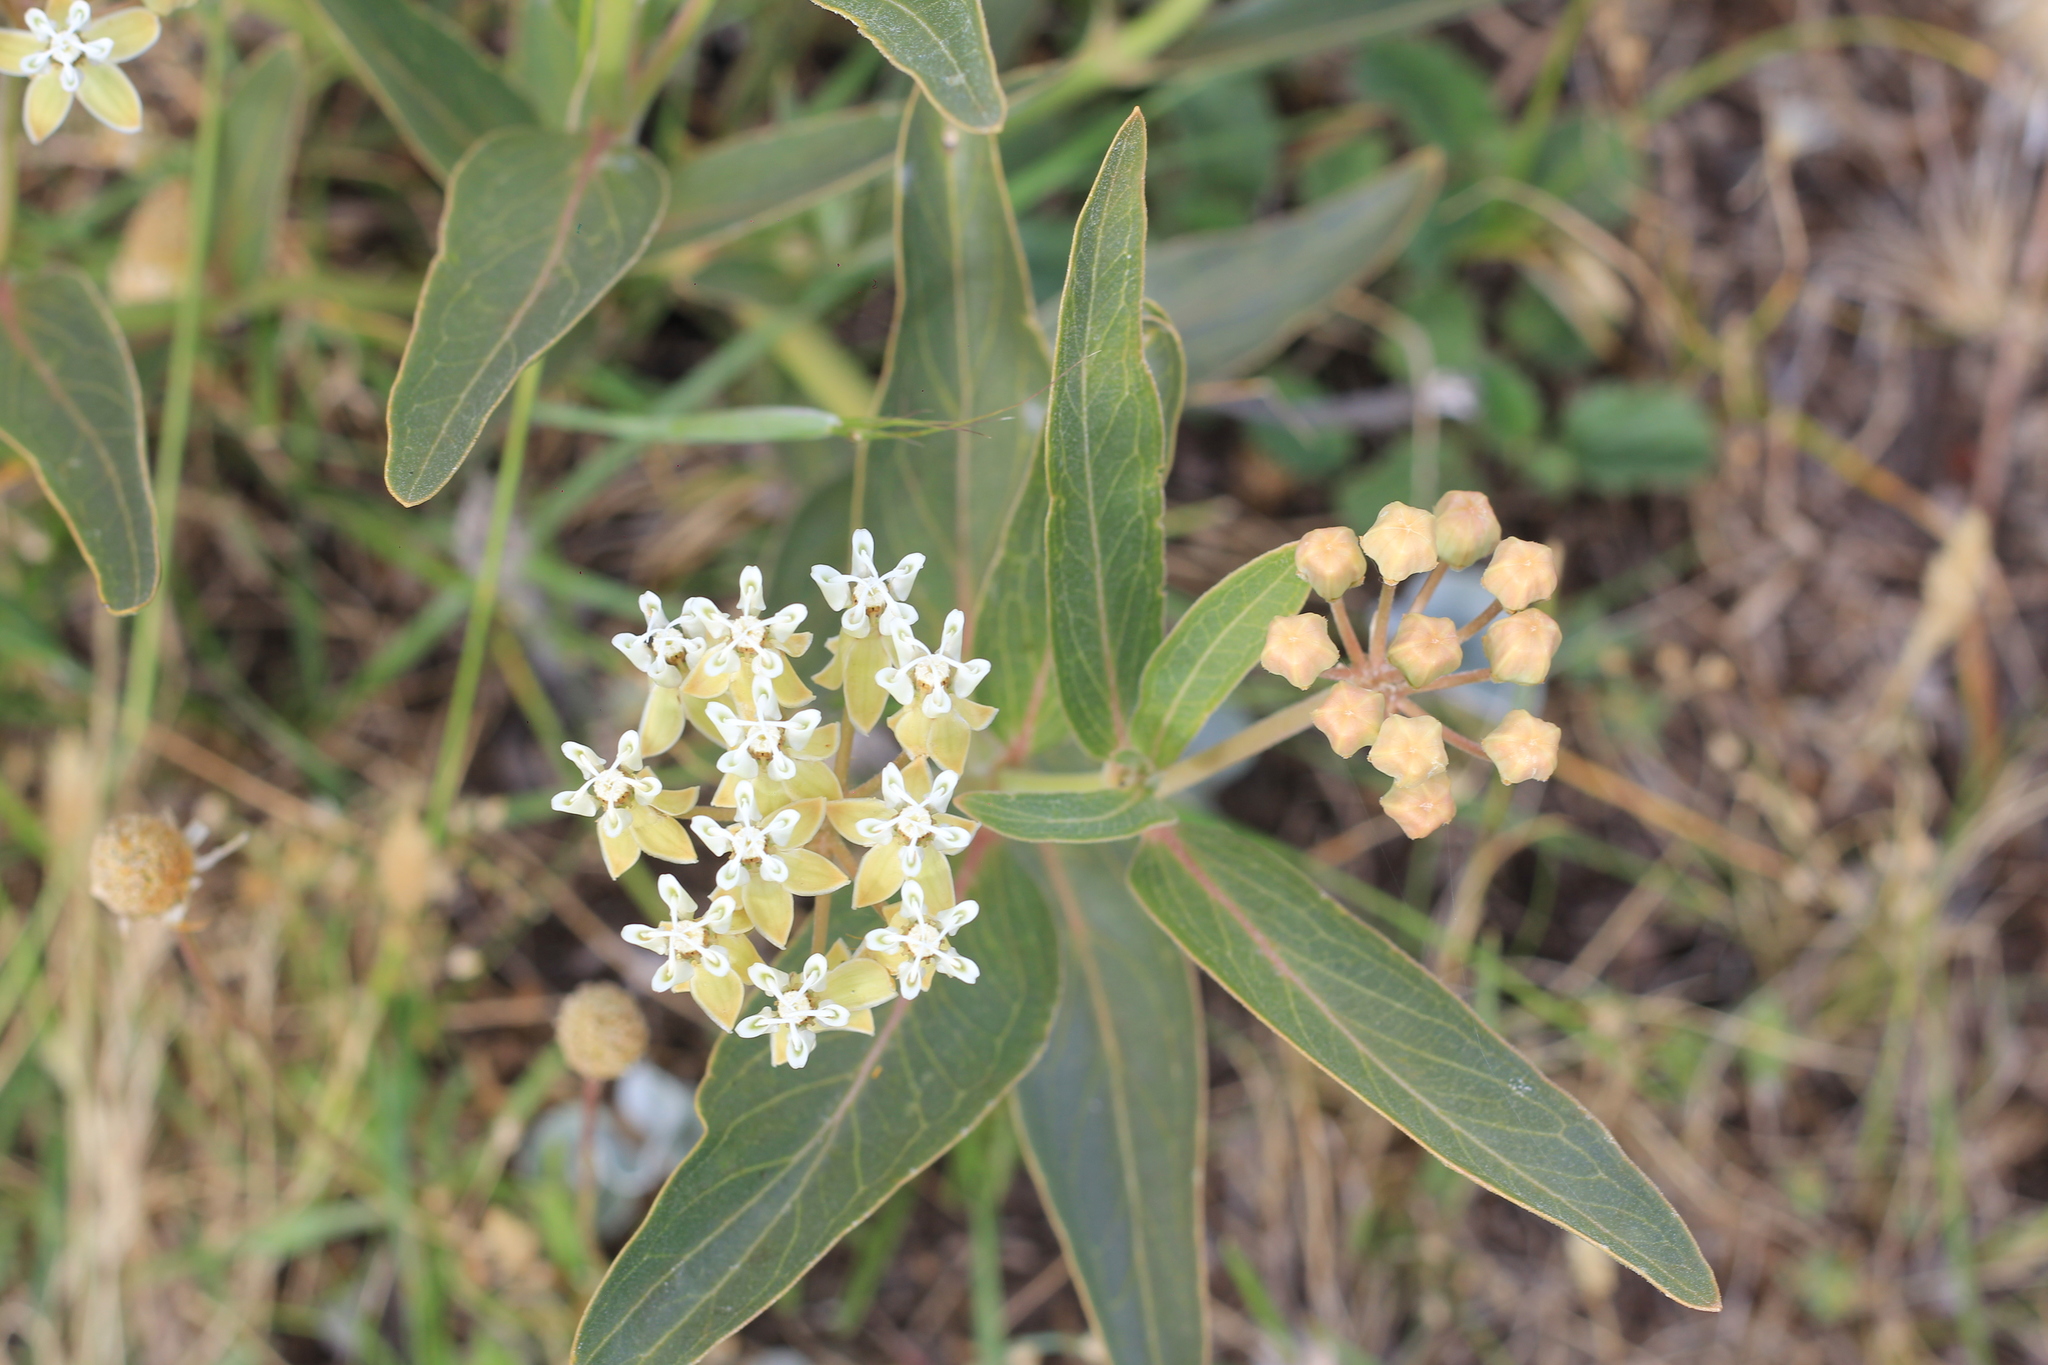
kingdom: Plantae
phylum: Tracheophyta
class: Magnoliopsida
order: Gentianales
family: Apocynaceae
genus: Asclepias
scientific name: Asclepias mellodora
